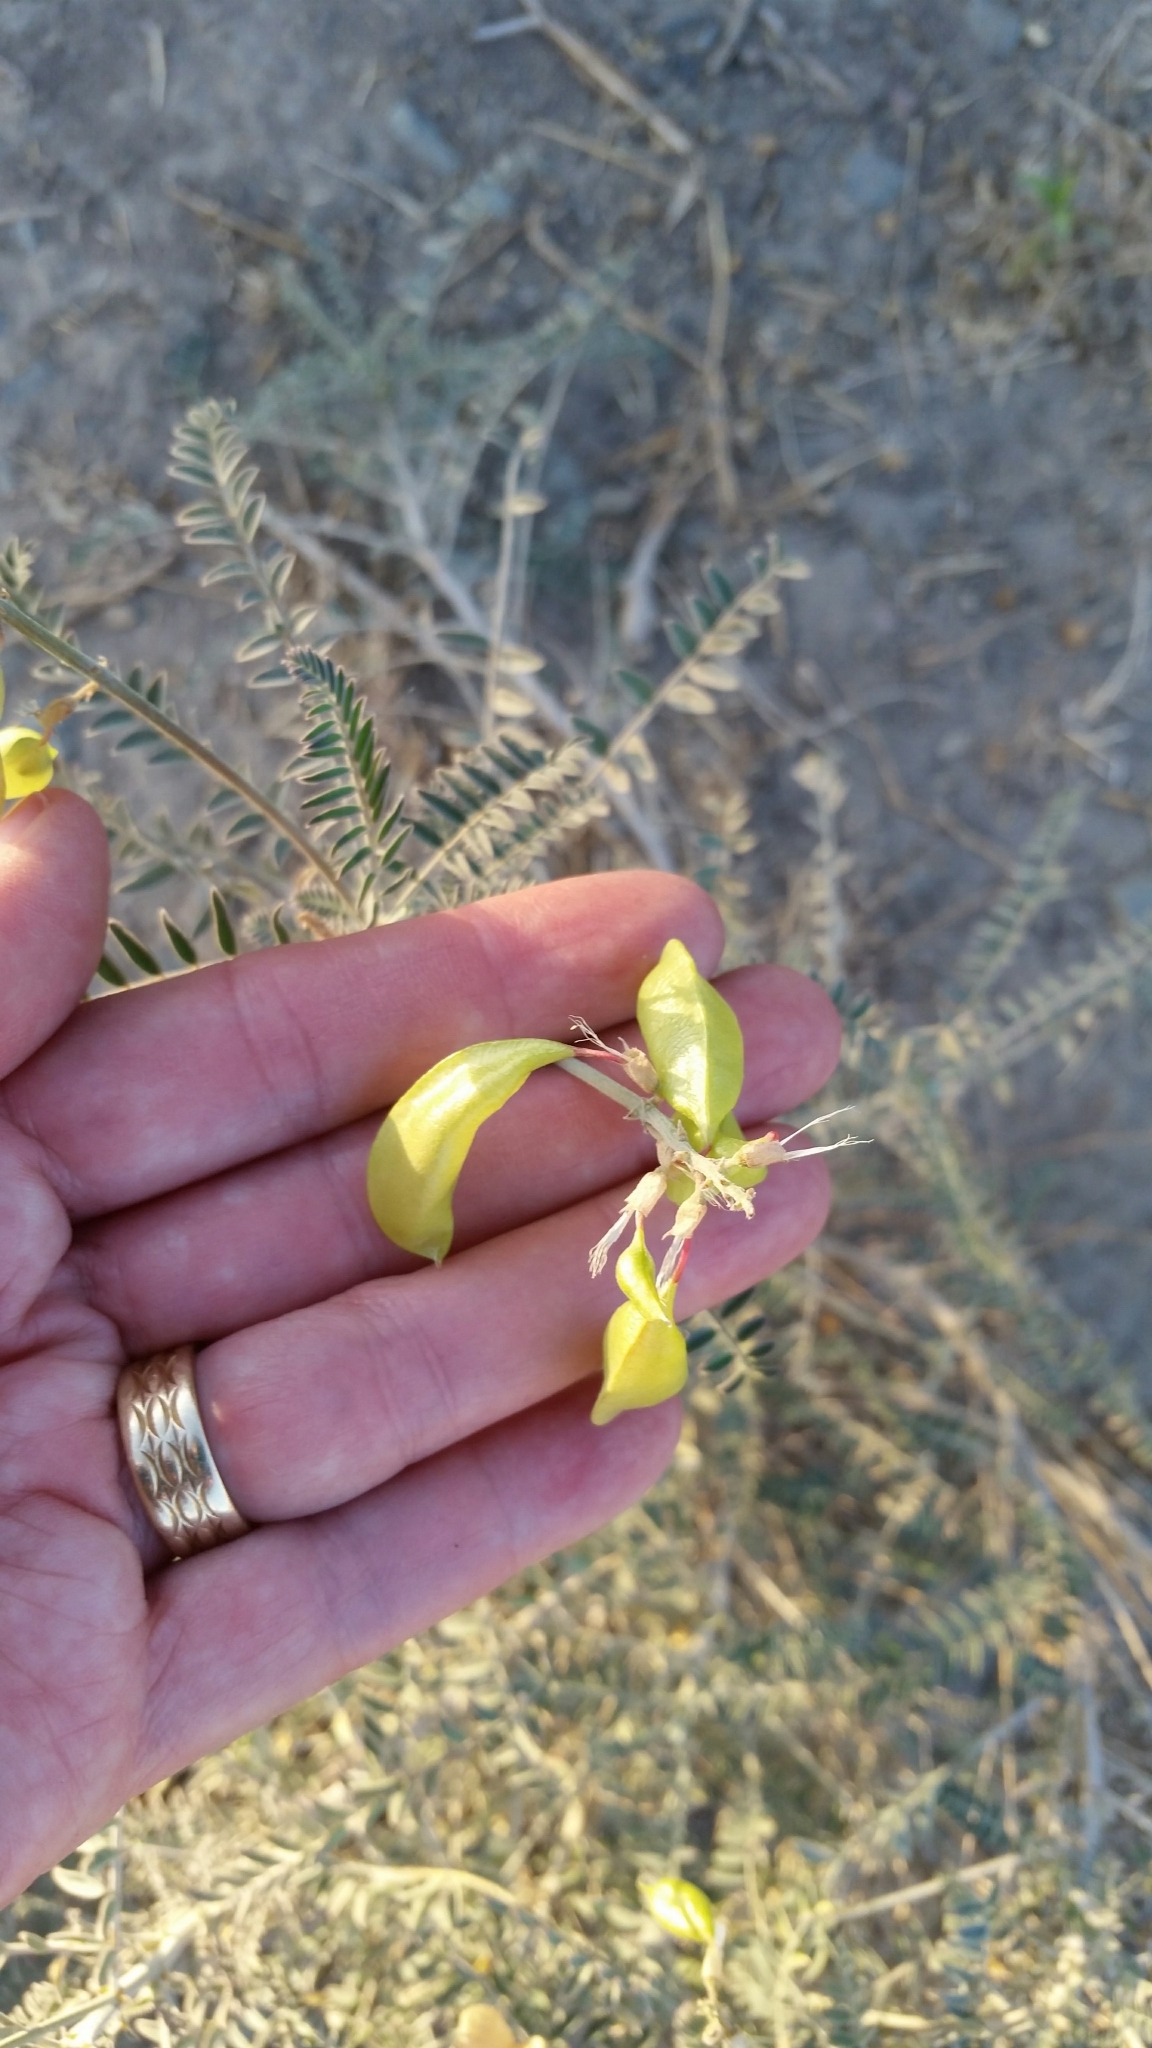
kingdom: Plantae
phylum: Tracheophyta
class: Magnoliopsida
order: Fabales
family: Fabaceae
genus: Astragalus
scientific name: Astragalus trichopodus
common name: Santa barbara milk-vetch
